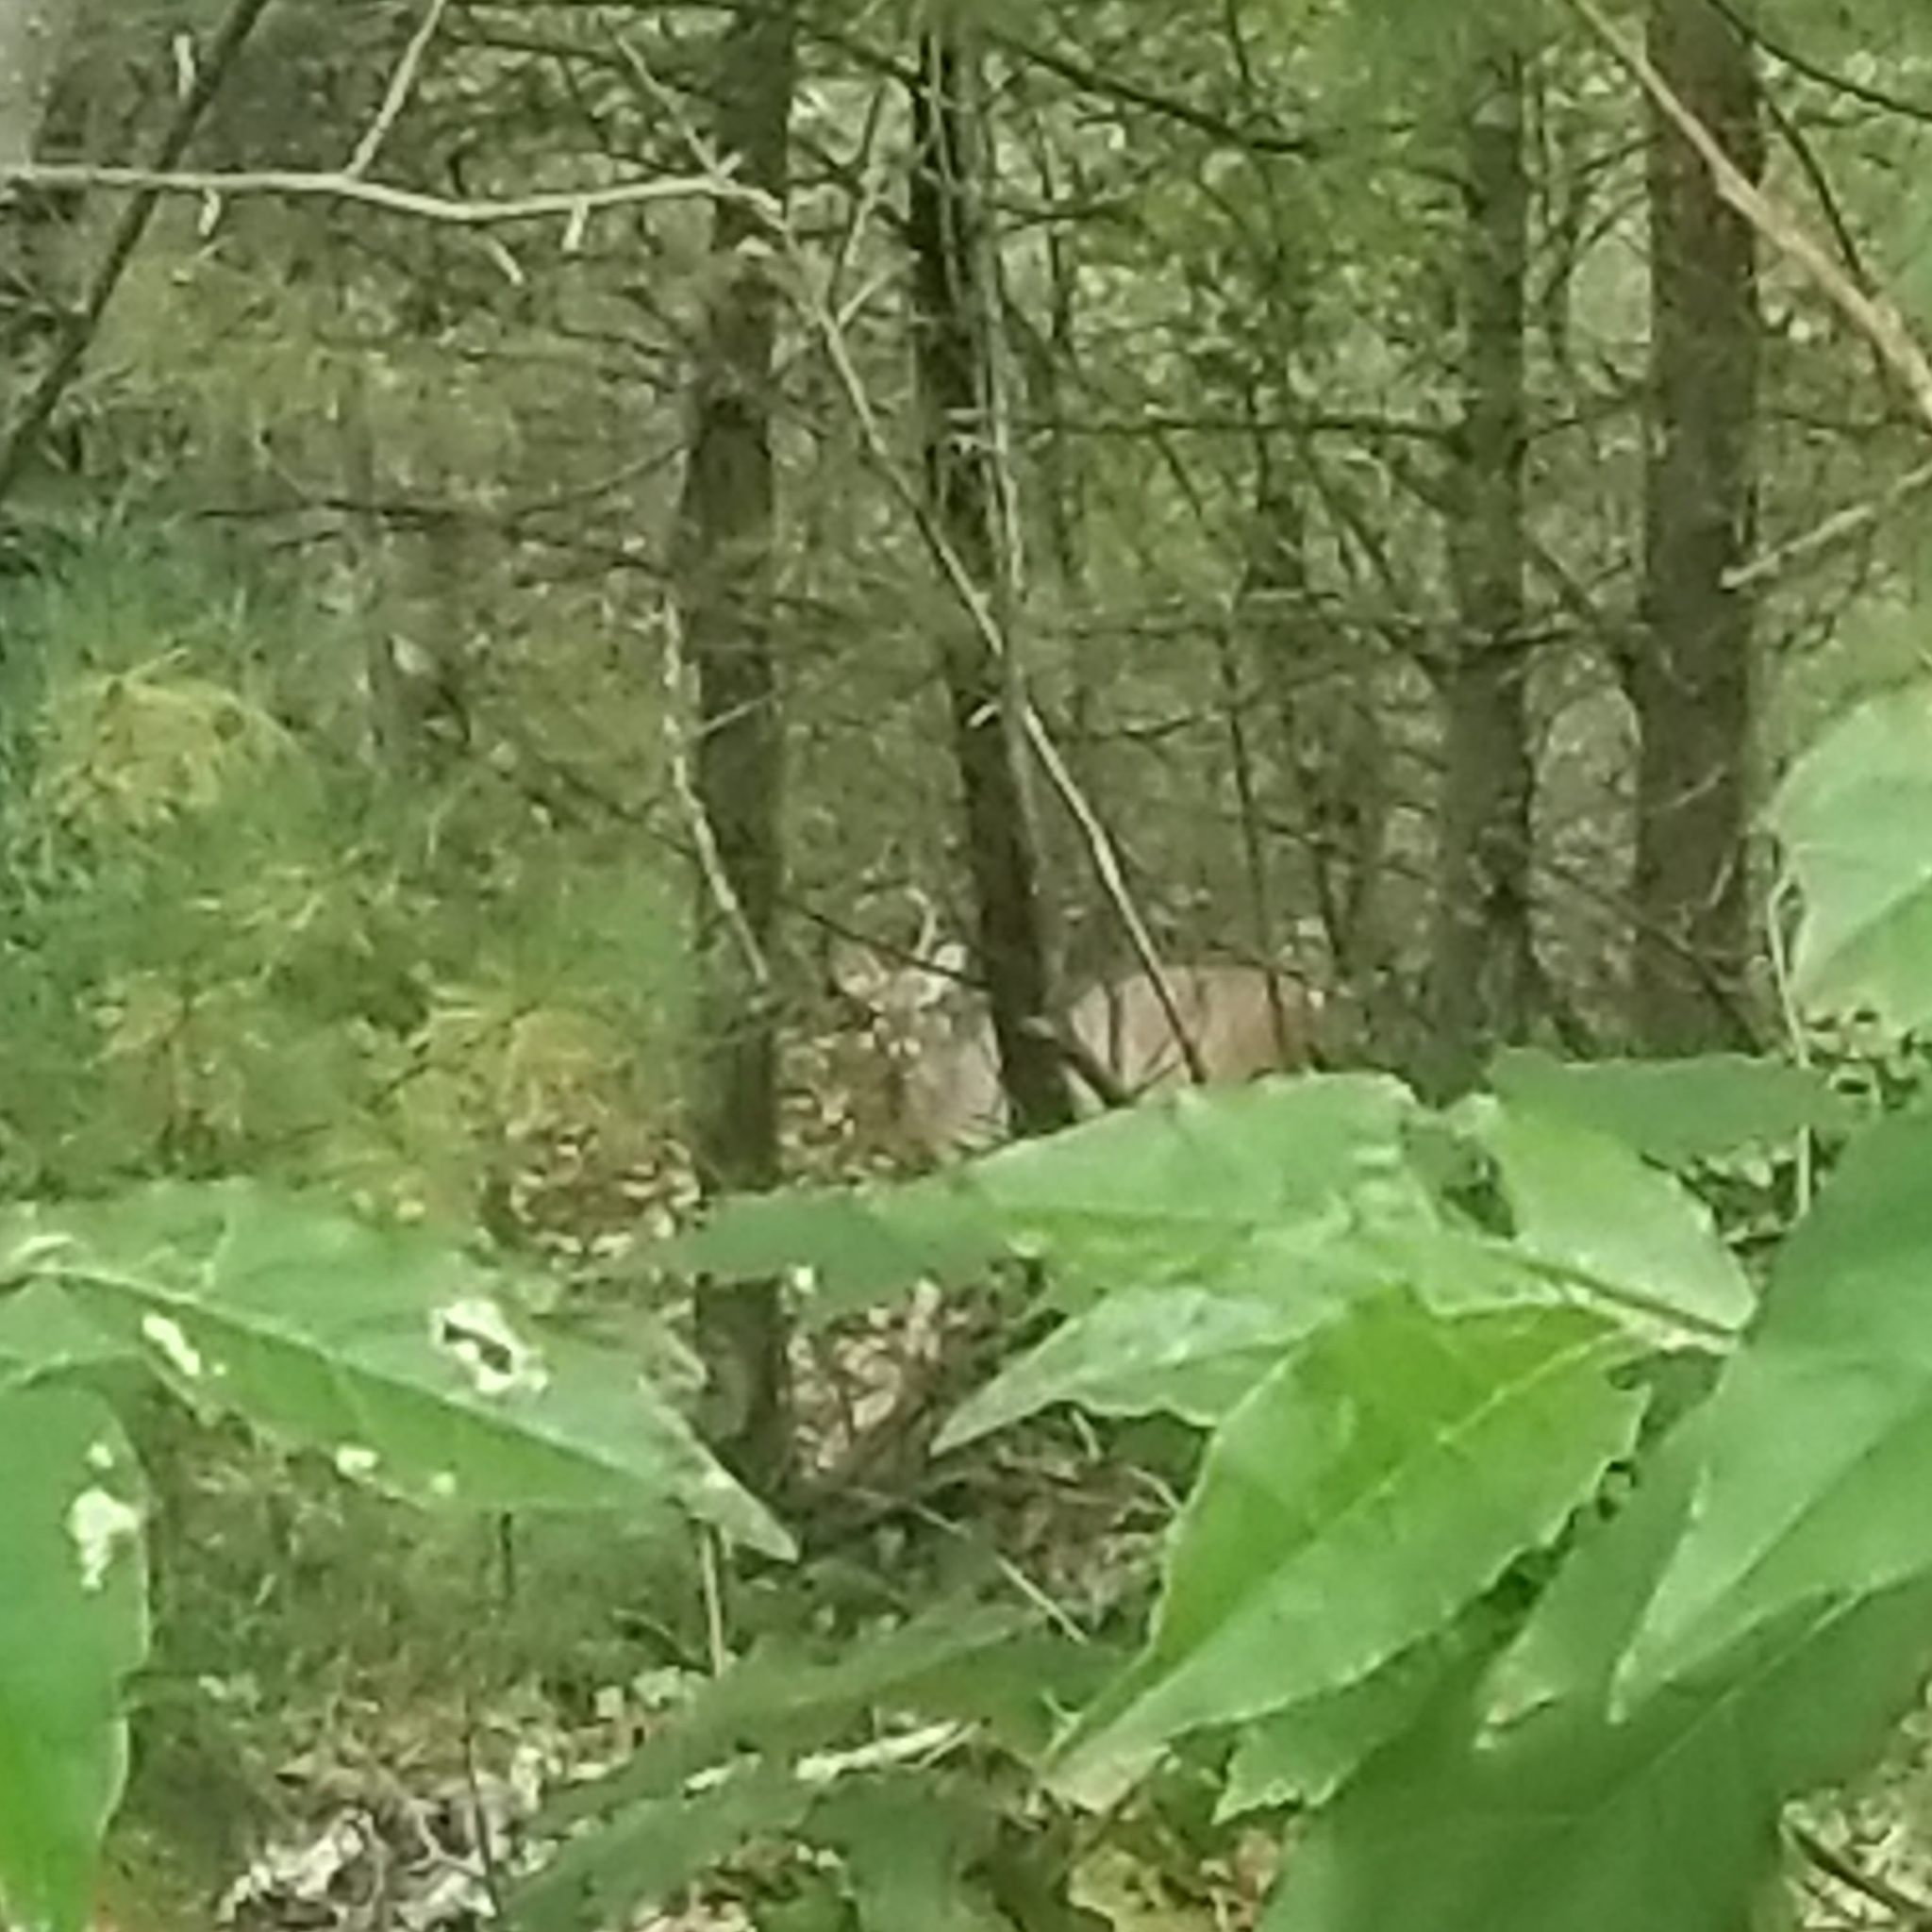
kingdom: Animalia
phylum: Chordata
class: Mammalia
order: Artiodactyla
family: Cervidae
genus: Odocoileus
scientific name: Odocoileus virginianus
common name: White-tailed deer
